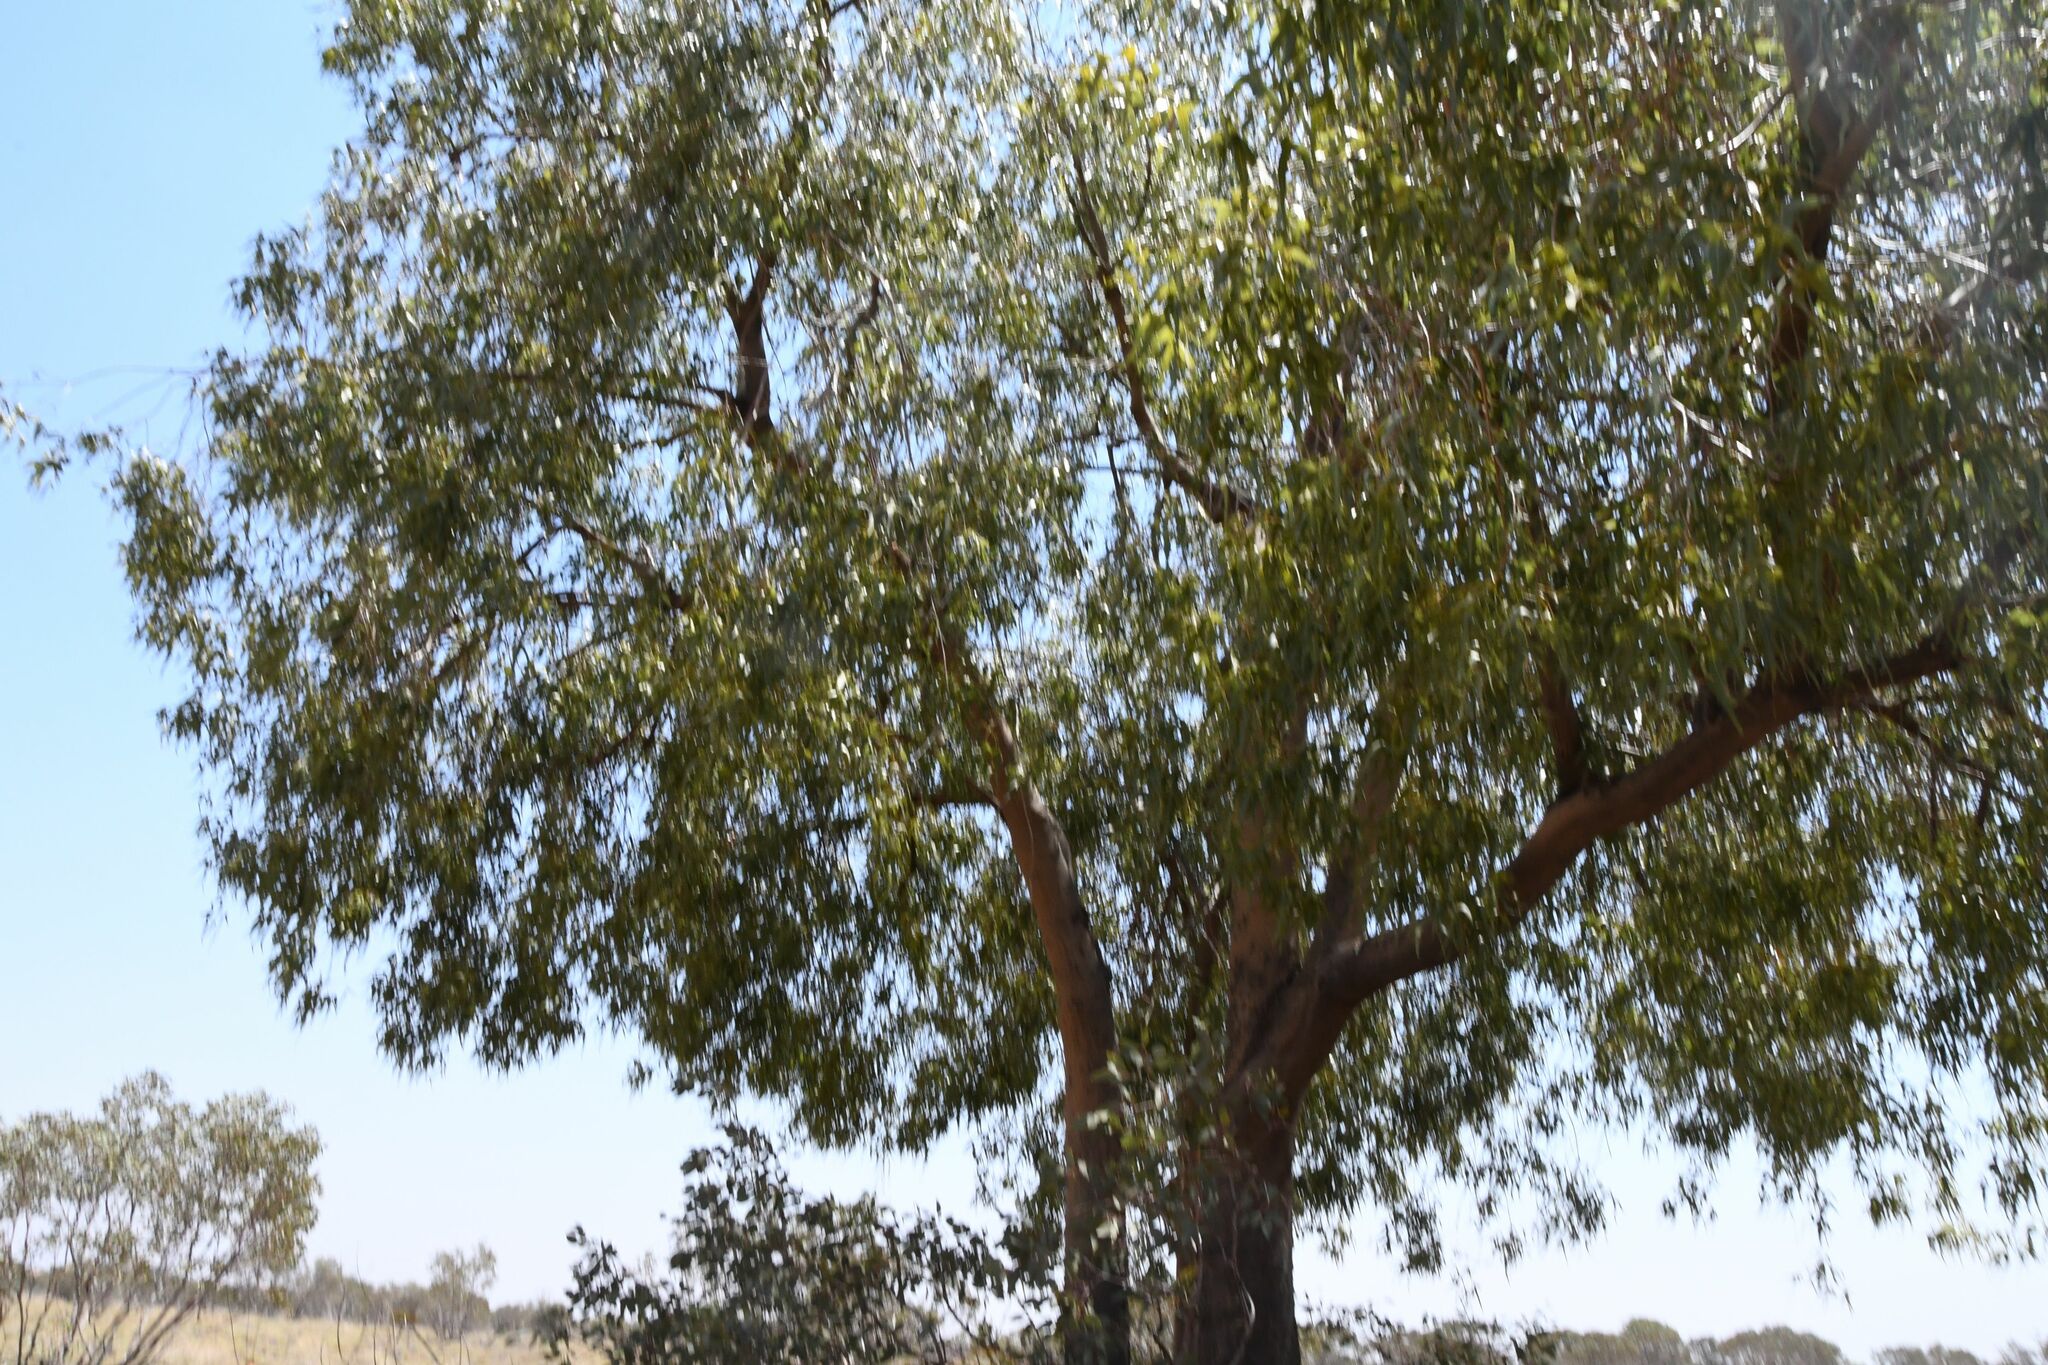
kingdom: Plantae
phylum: Tracheophyta
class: Magnoliopsida
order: Malvales
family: Malvaceae
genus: Brachychiton
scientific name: Brachychiton gregorii
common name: Desert kurrajong
